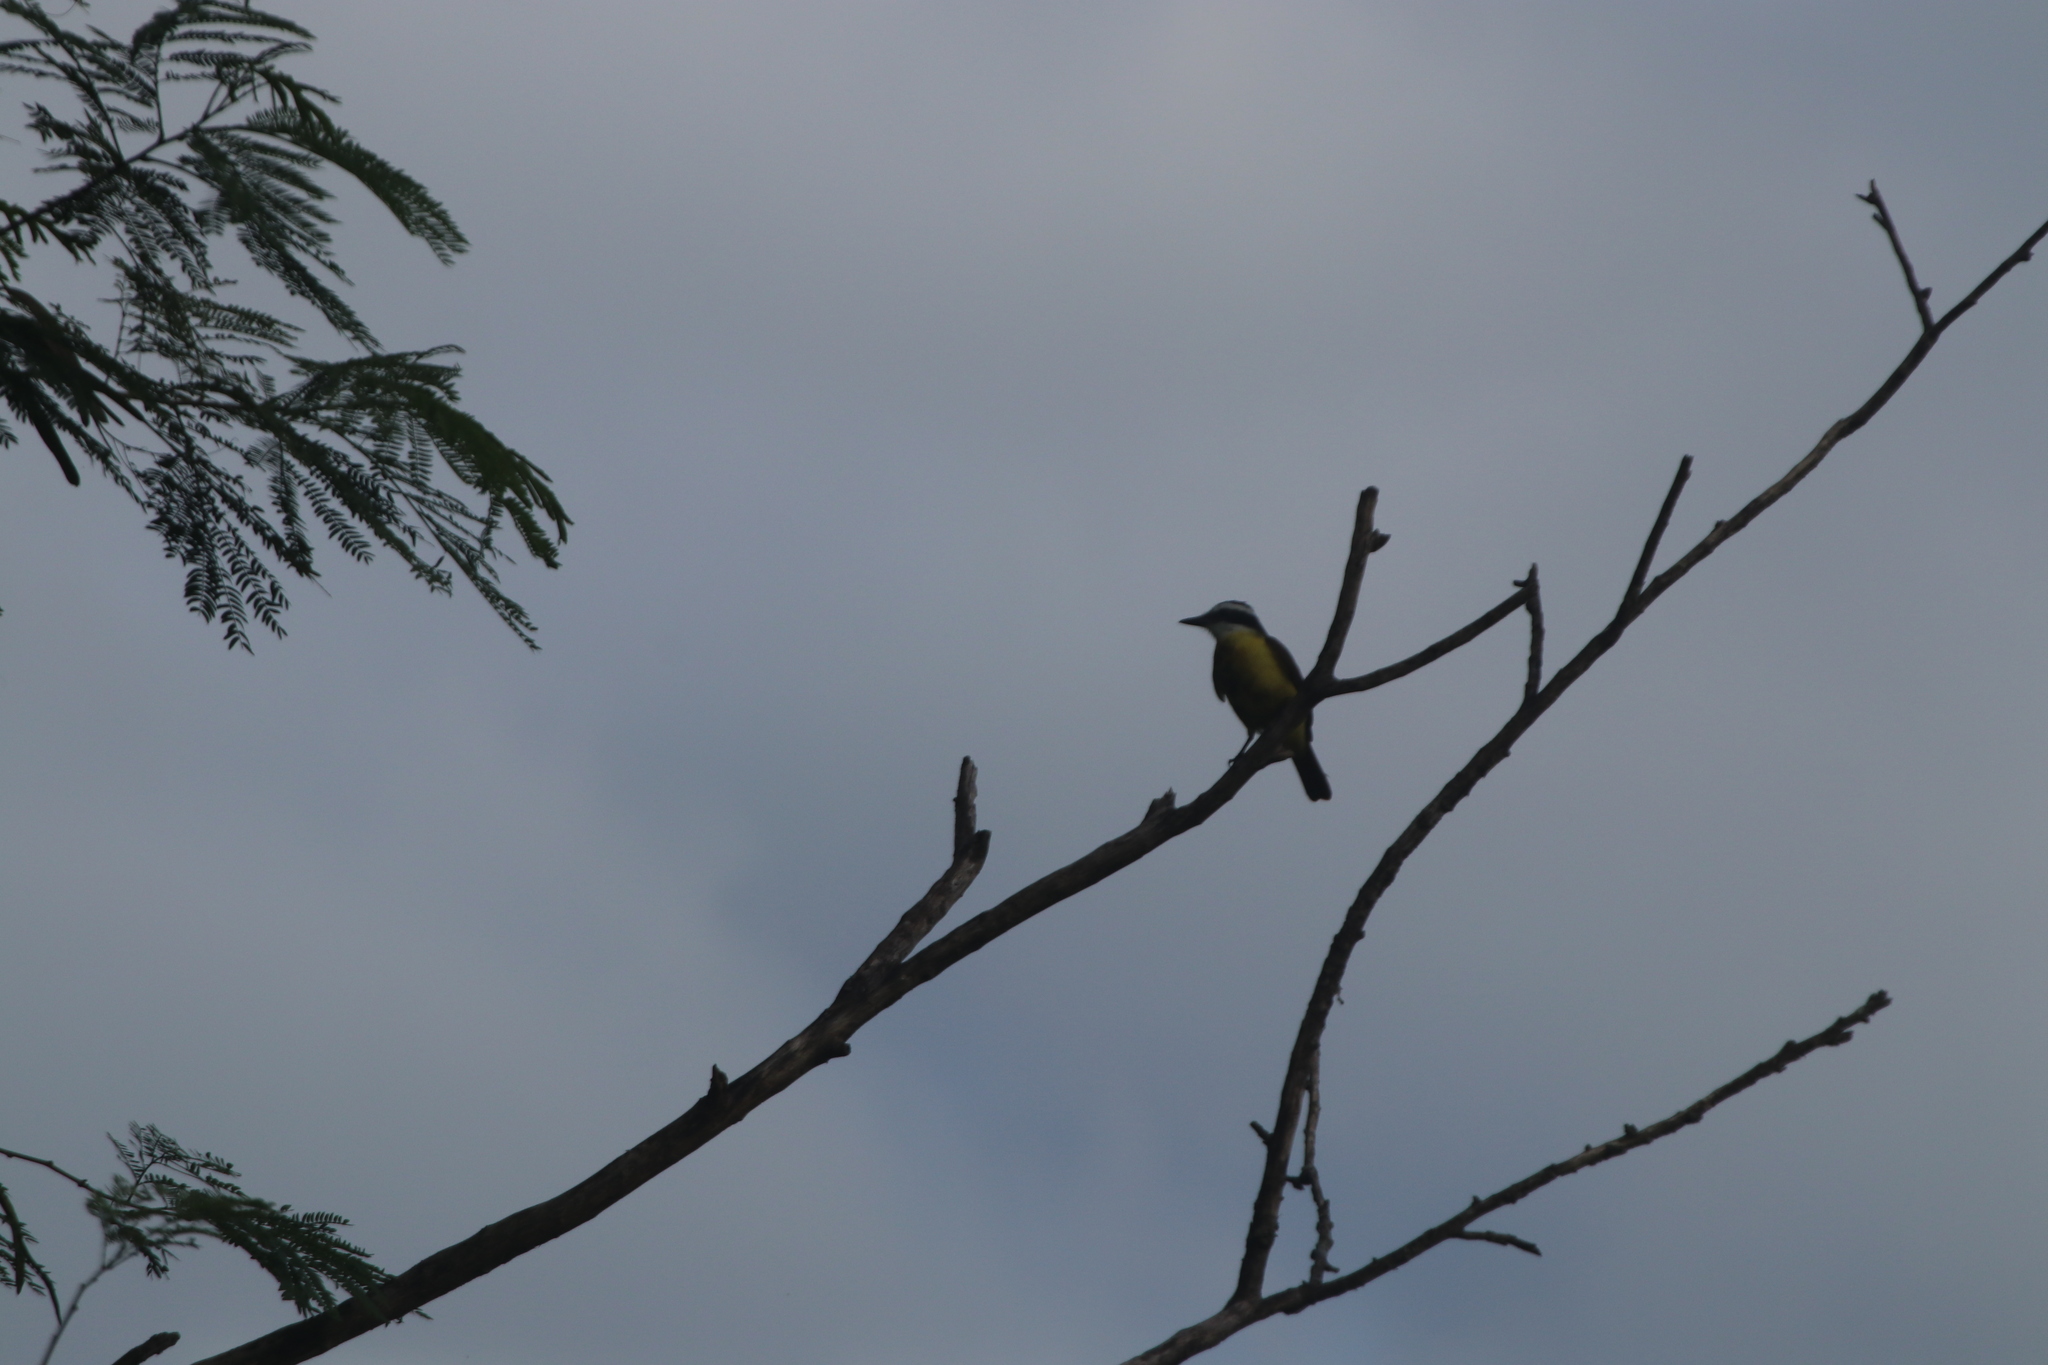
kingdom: Animalia
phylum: Chordata
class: Aves
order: Passeriformes
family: Tyrannidae
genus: Pitangus
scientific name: Pitangus sulphuratus
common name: Great kiskadee
